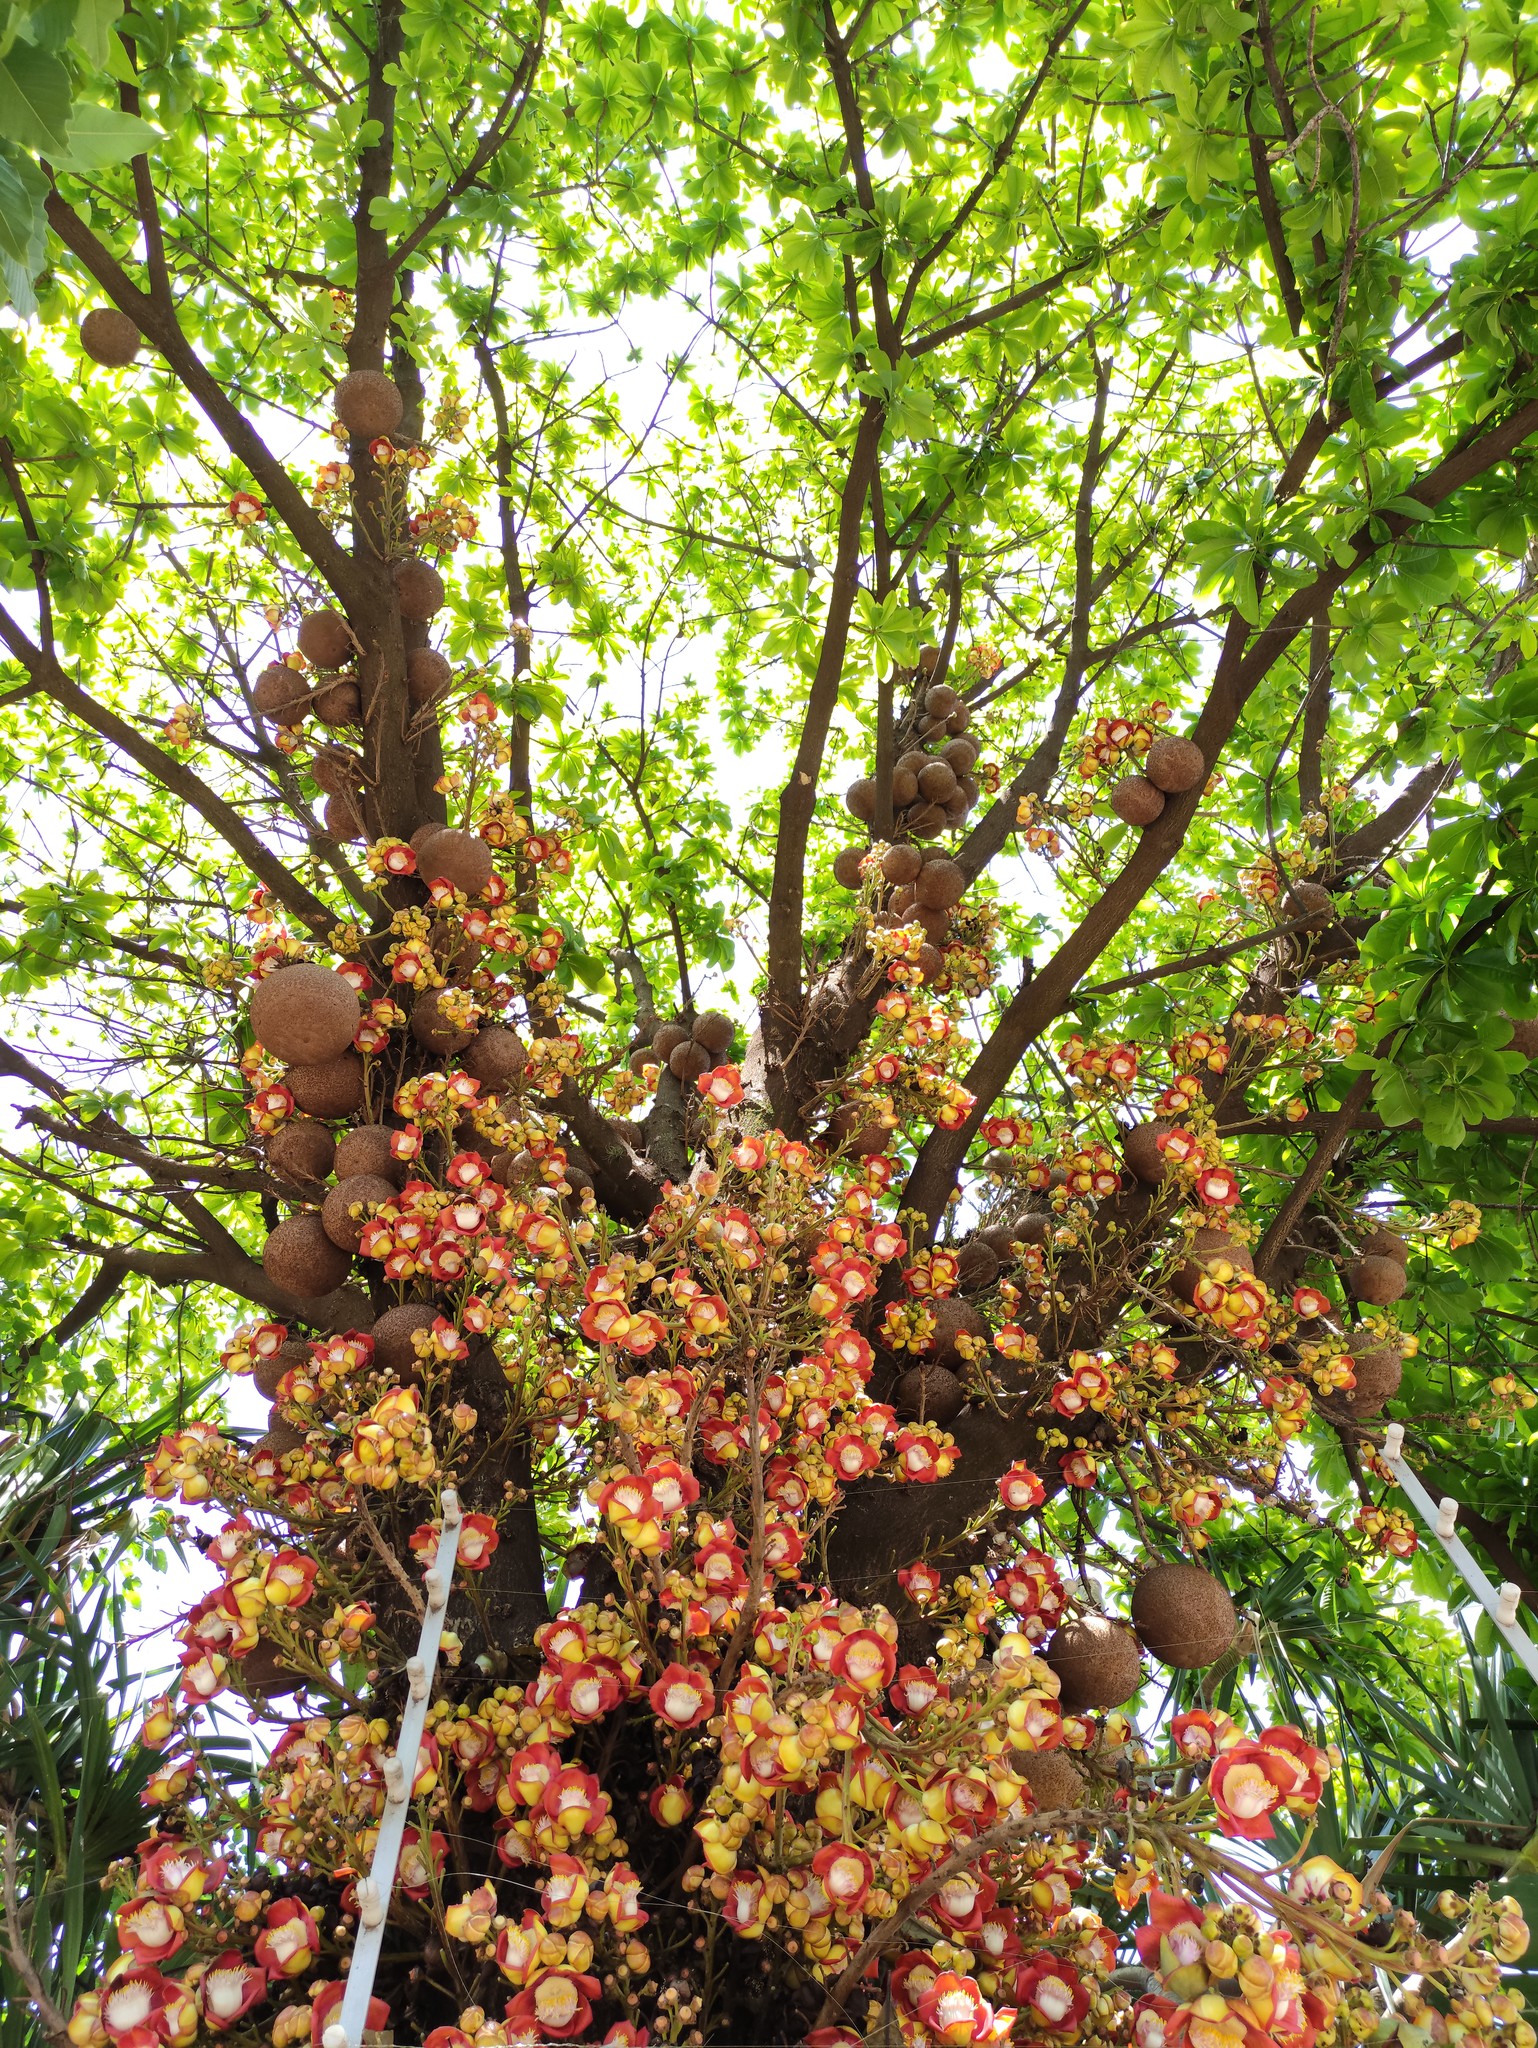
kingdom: Plantae
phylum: Tracheophyta
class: Magnoliopsida
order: Ericales
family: Lecythidaceae
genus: Couroupita
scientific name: Couroupita guianensis
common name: Cannonball tree
